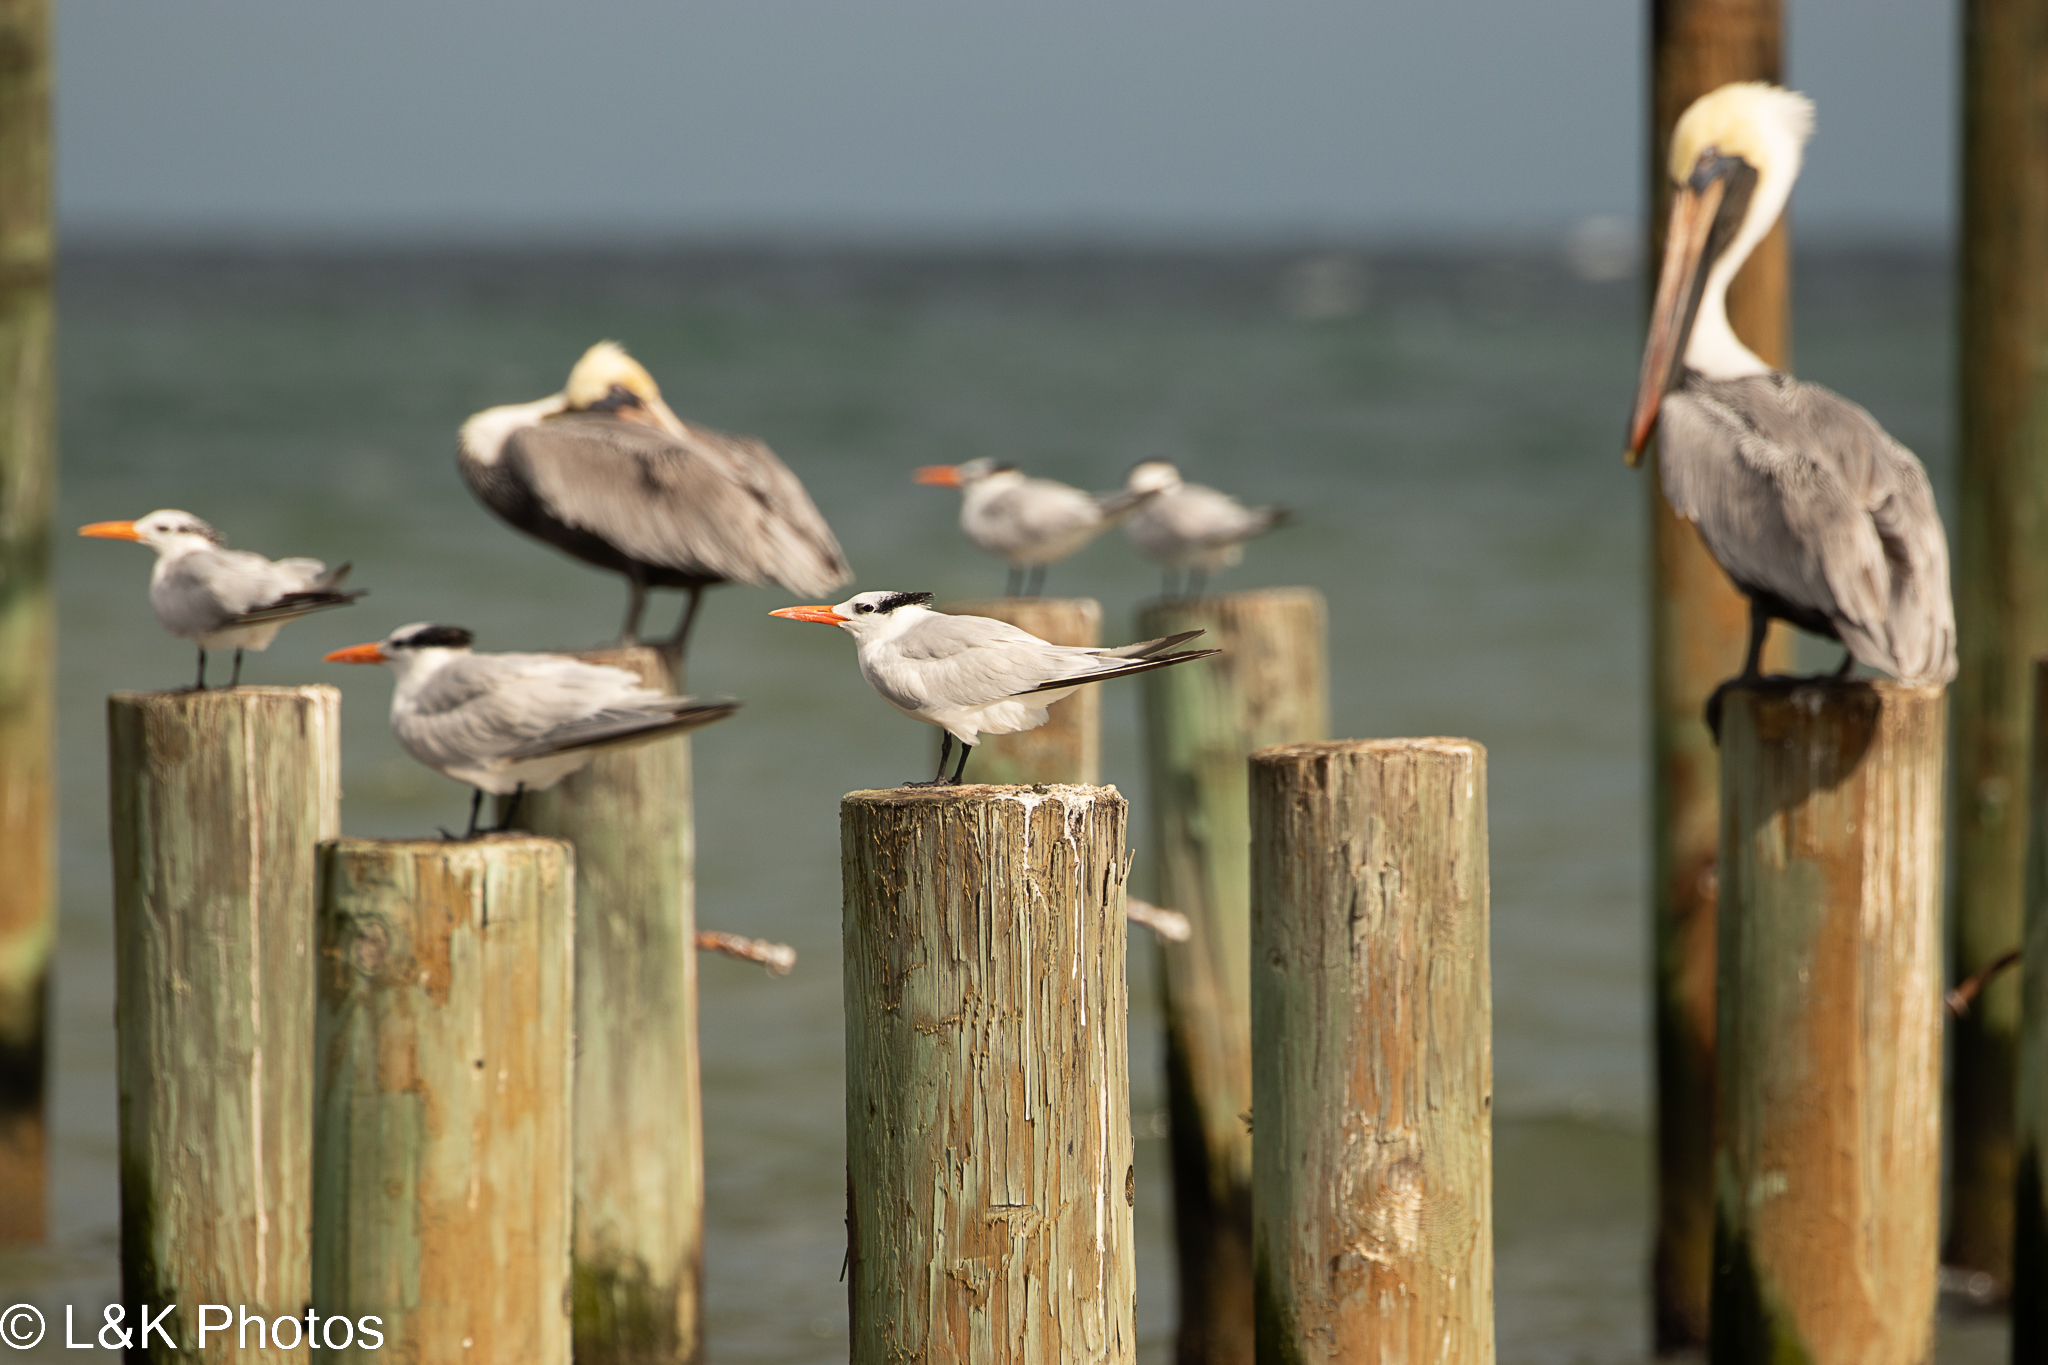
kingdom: Animalia
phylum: Chordata
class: Aves
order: Pelecaniformes
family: Pelecanidae
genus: Pelecanus
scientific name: Pelecanus occidentalis
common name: Brown pelican
